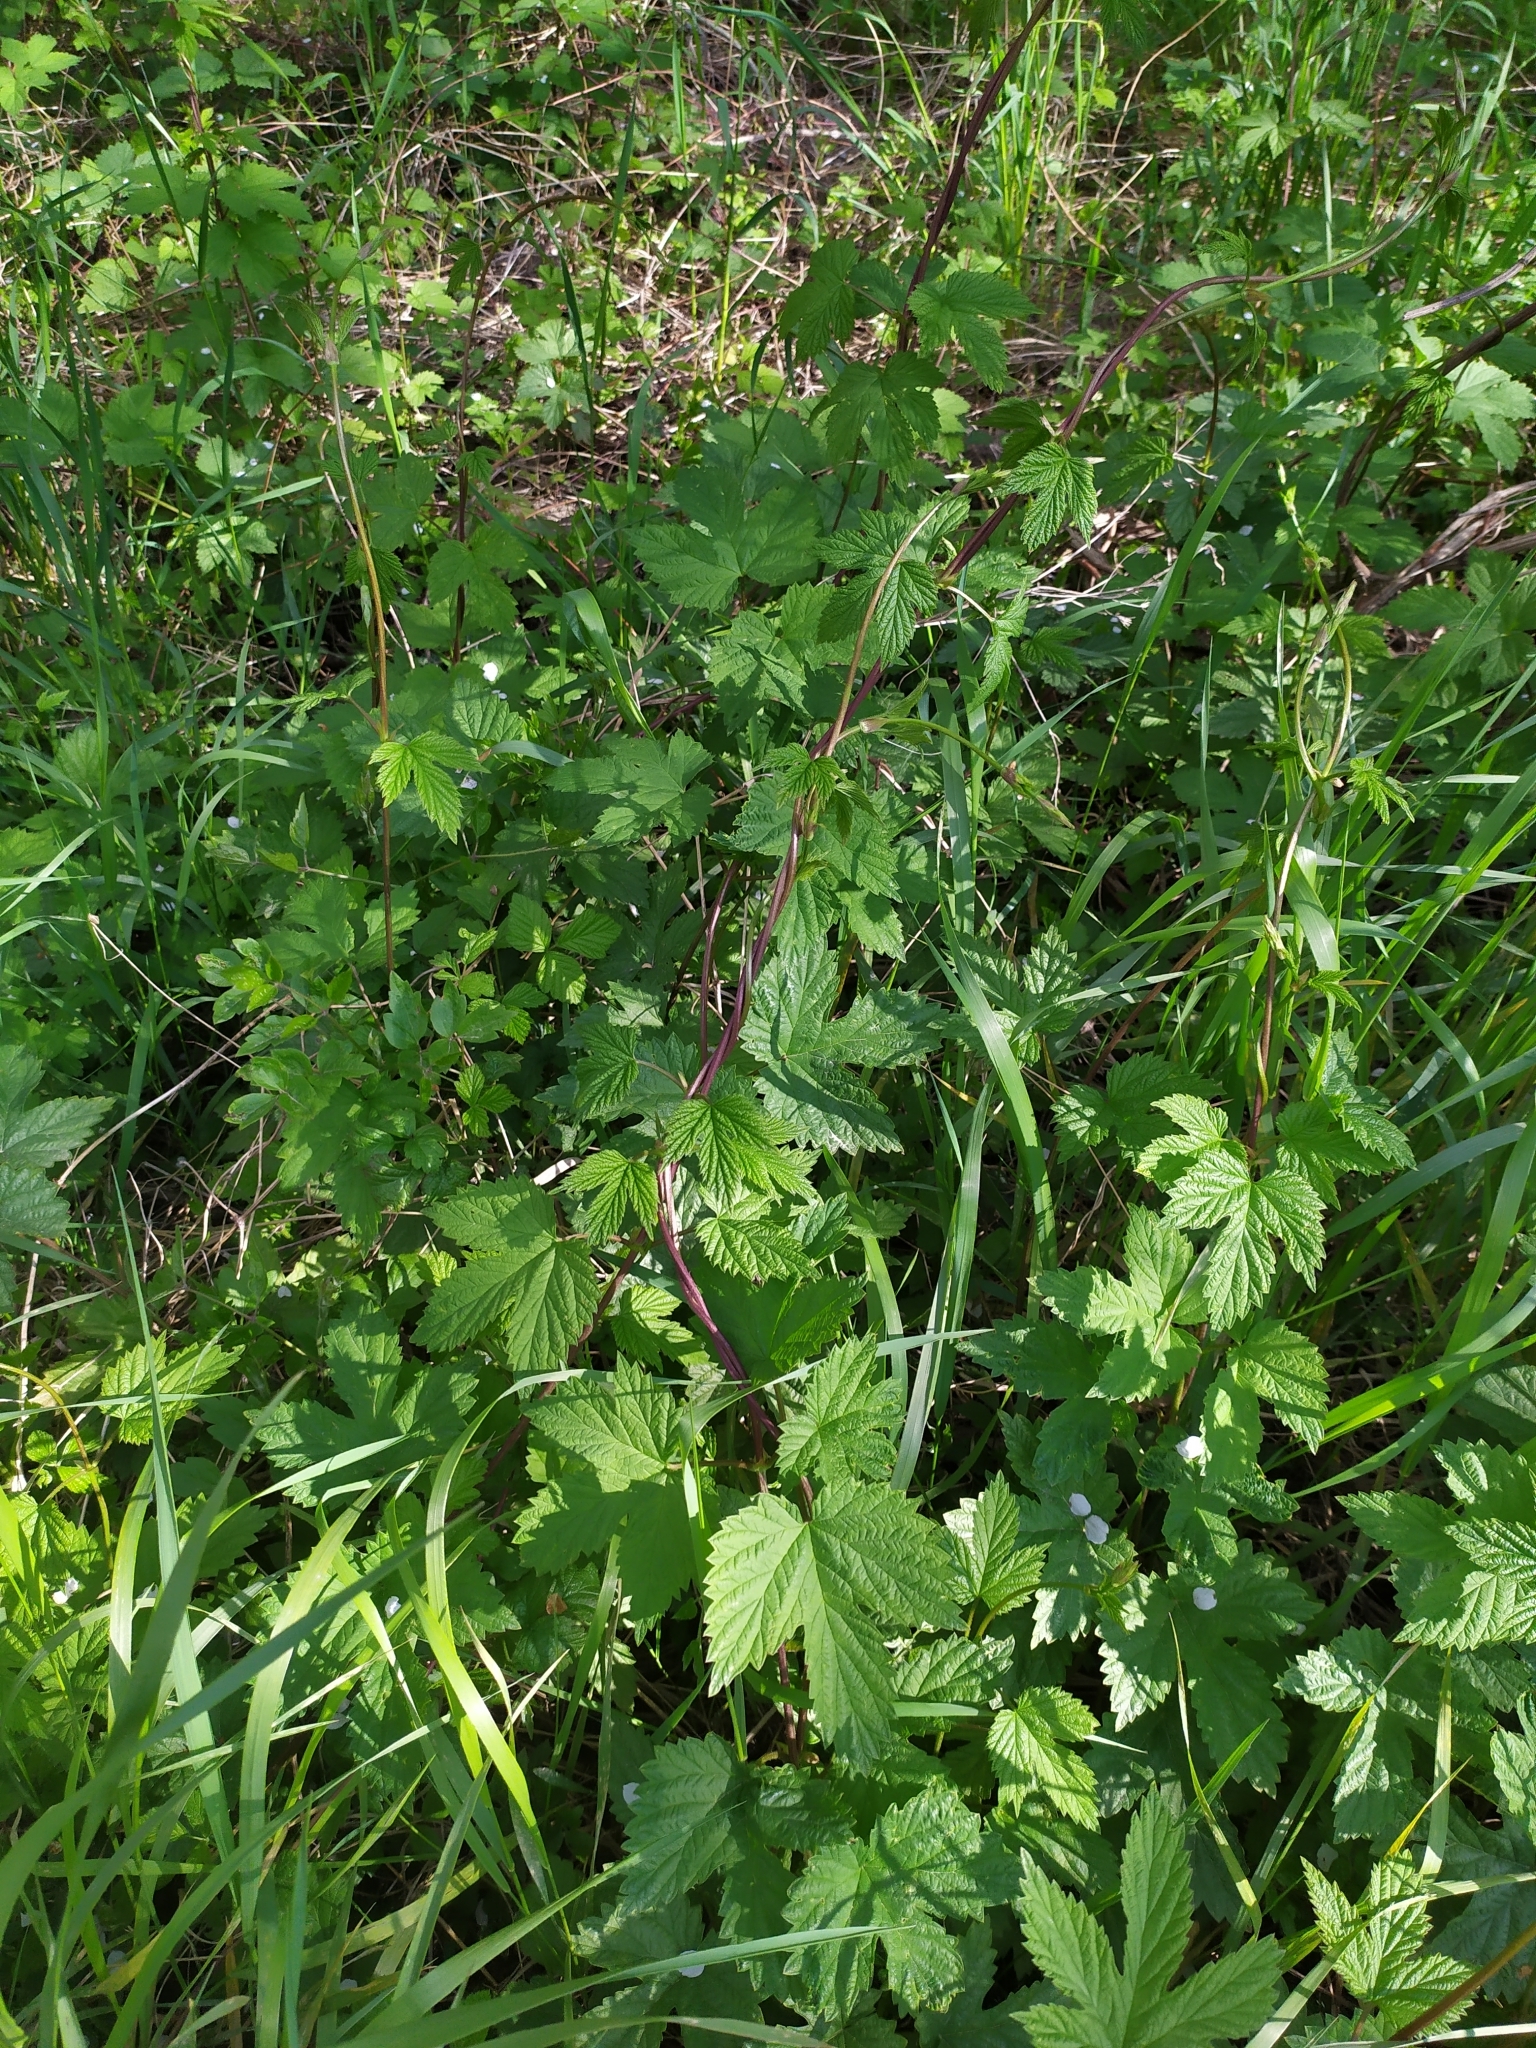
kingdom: Plantae
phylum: Tracheophyta
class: Magnoliopsida
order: Rosales
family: Cannabaceae
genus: Humulus
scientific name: Humulus lupulus
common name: Hop
